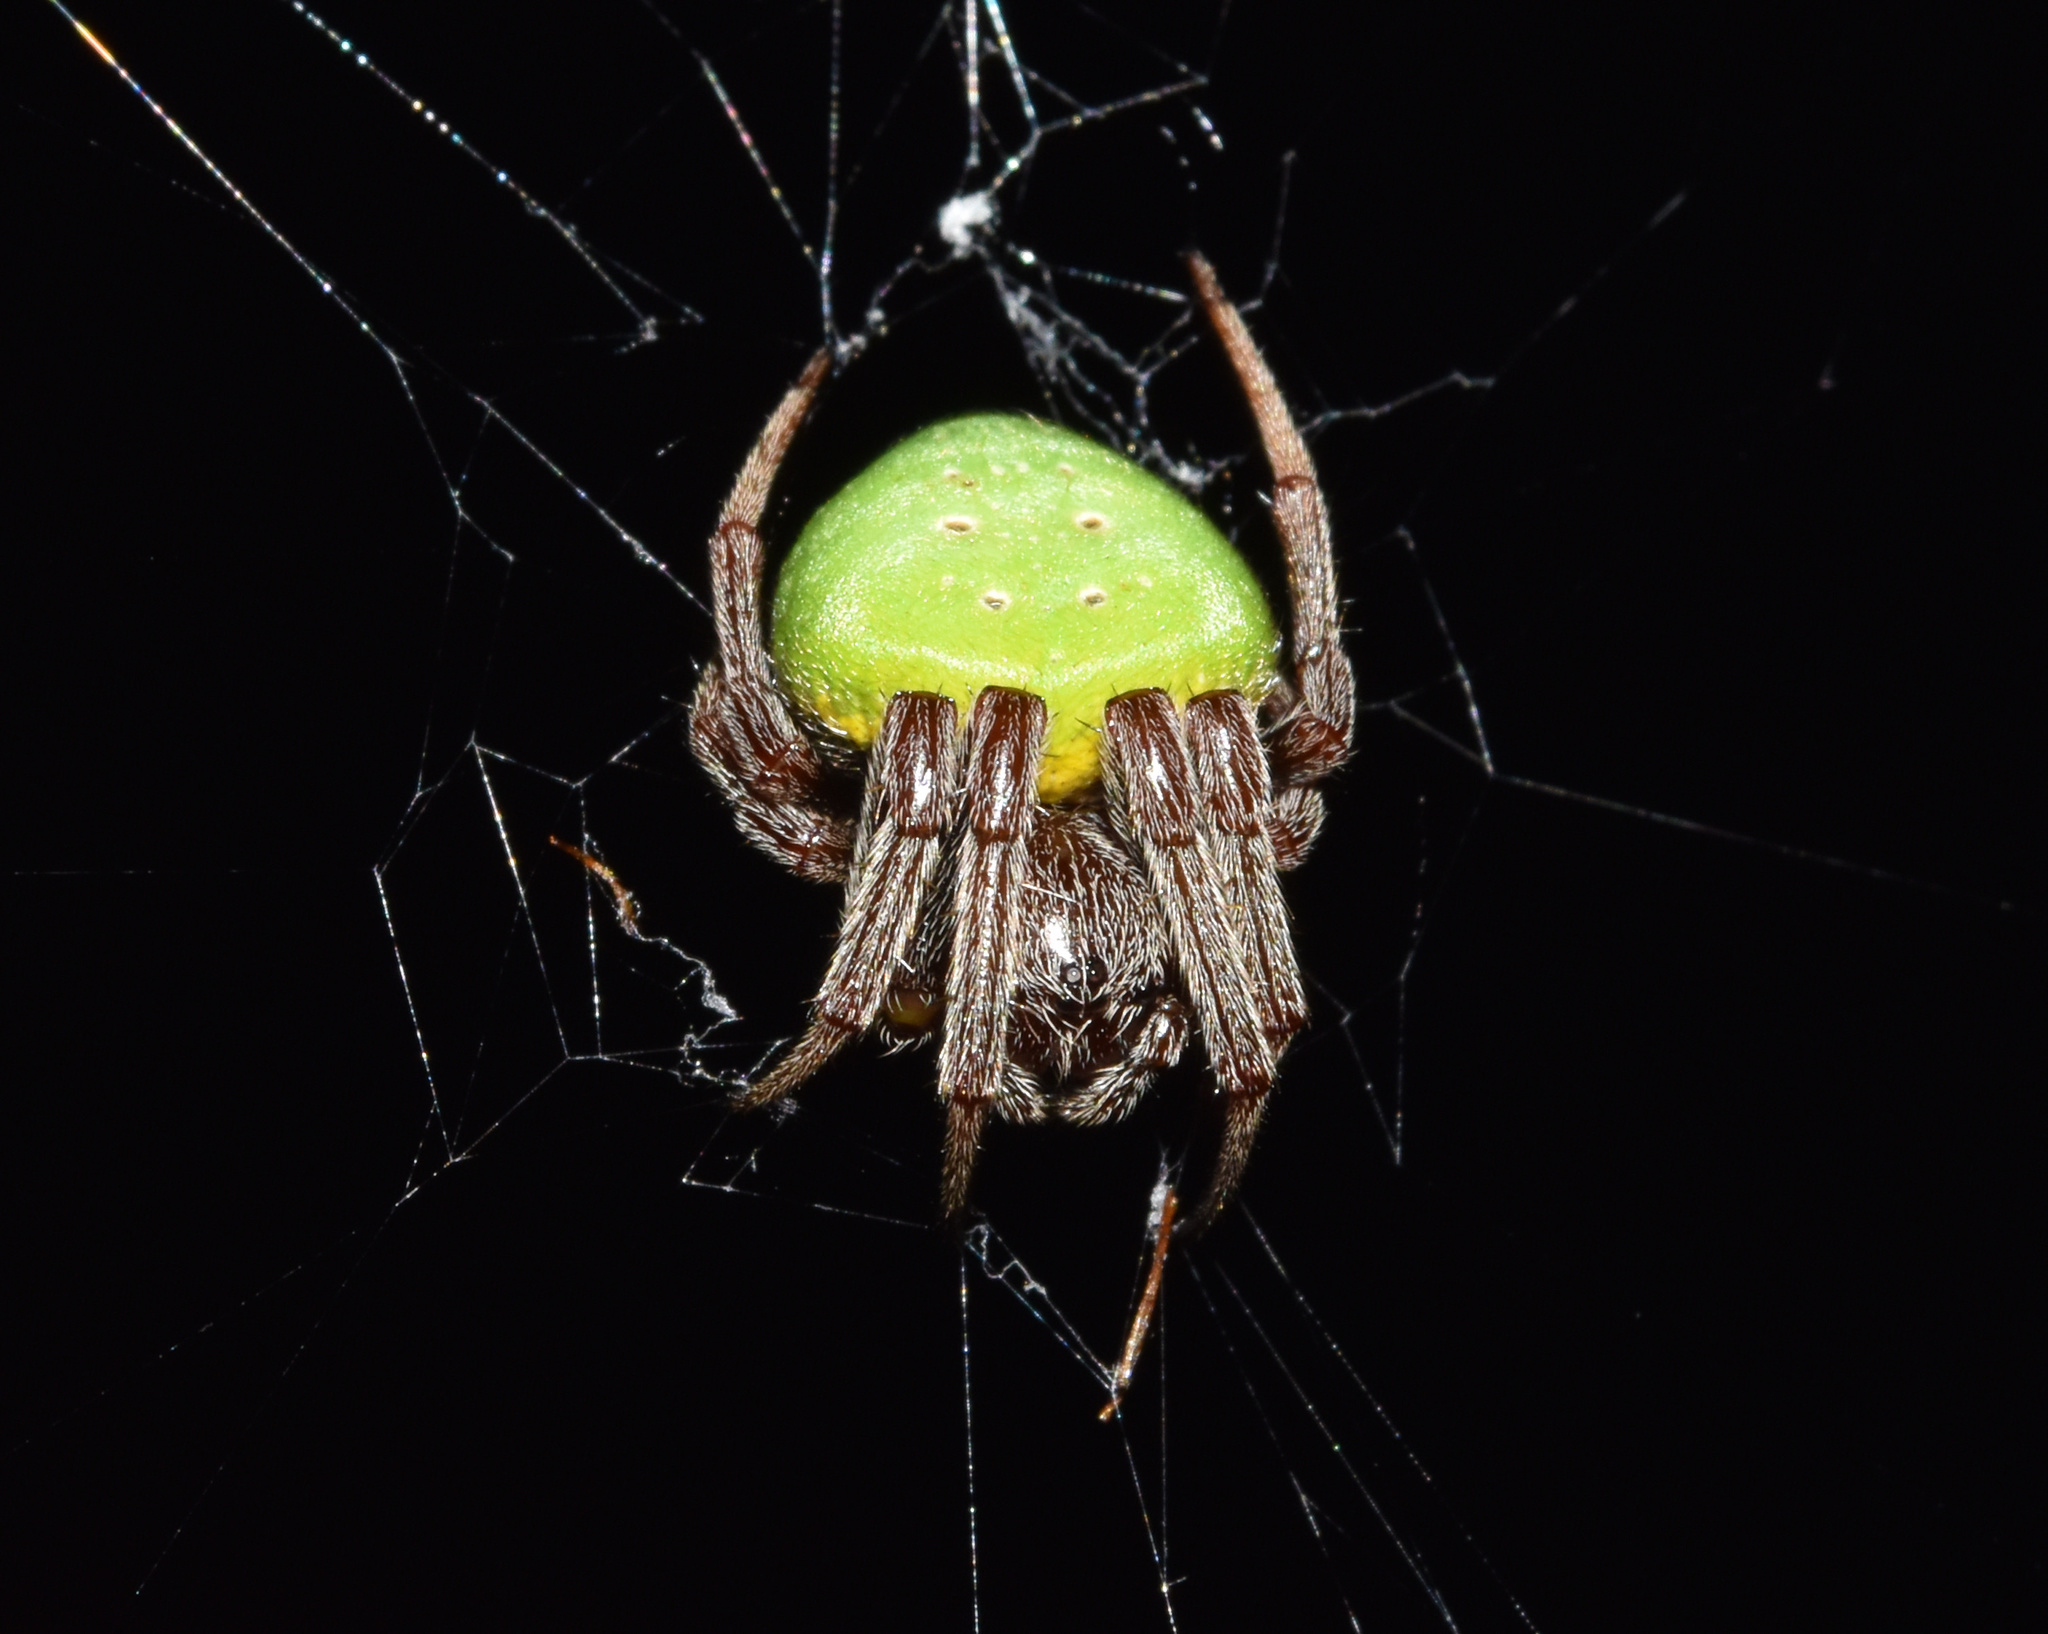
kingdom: Animalia
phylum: Arthropoda
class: Arachnida
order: Araneae
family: Araneidae
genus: Araneus
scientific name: Araneus apricus
